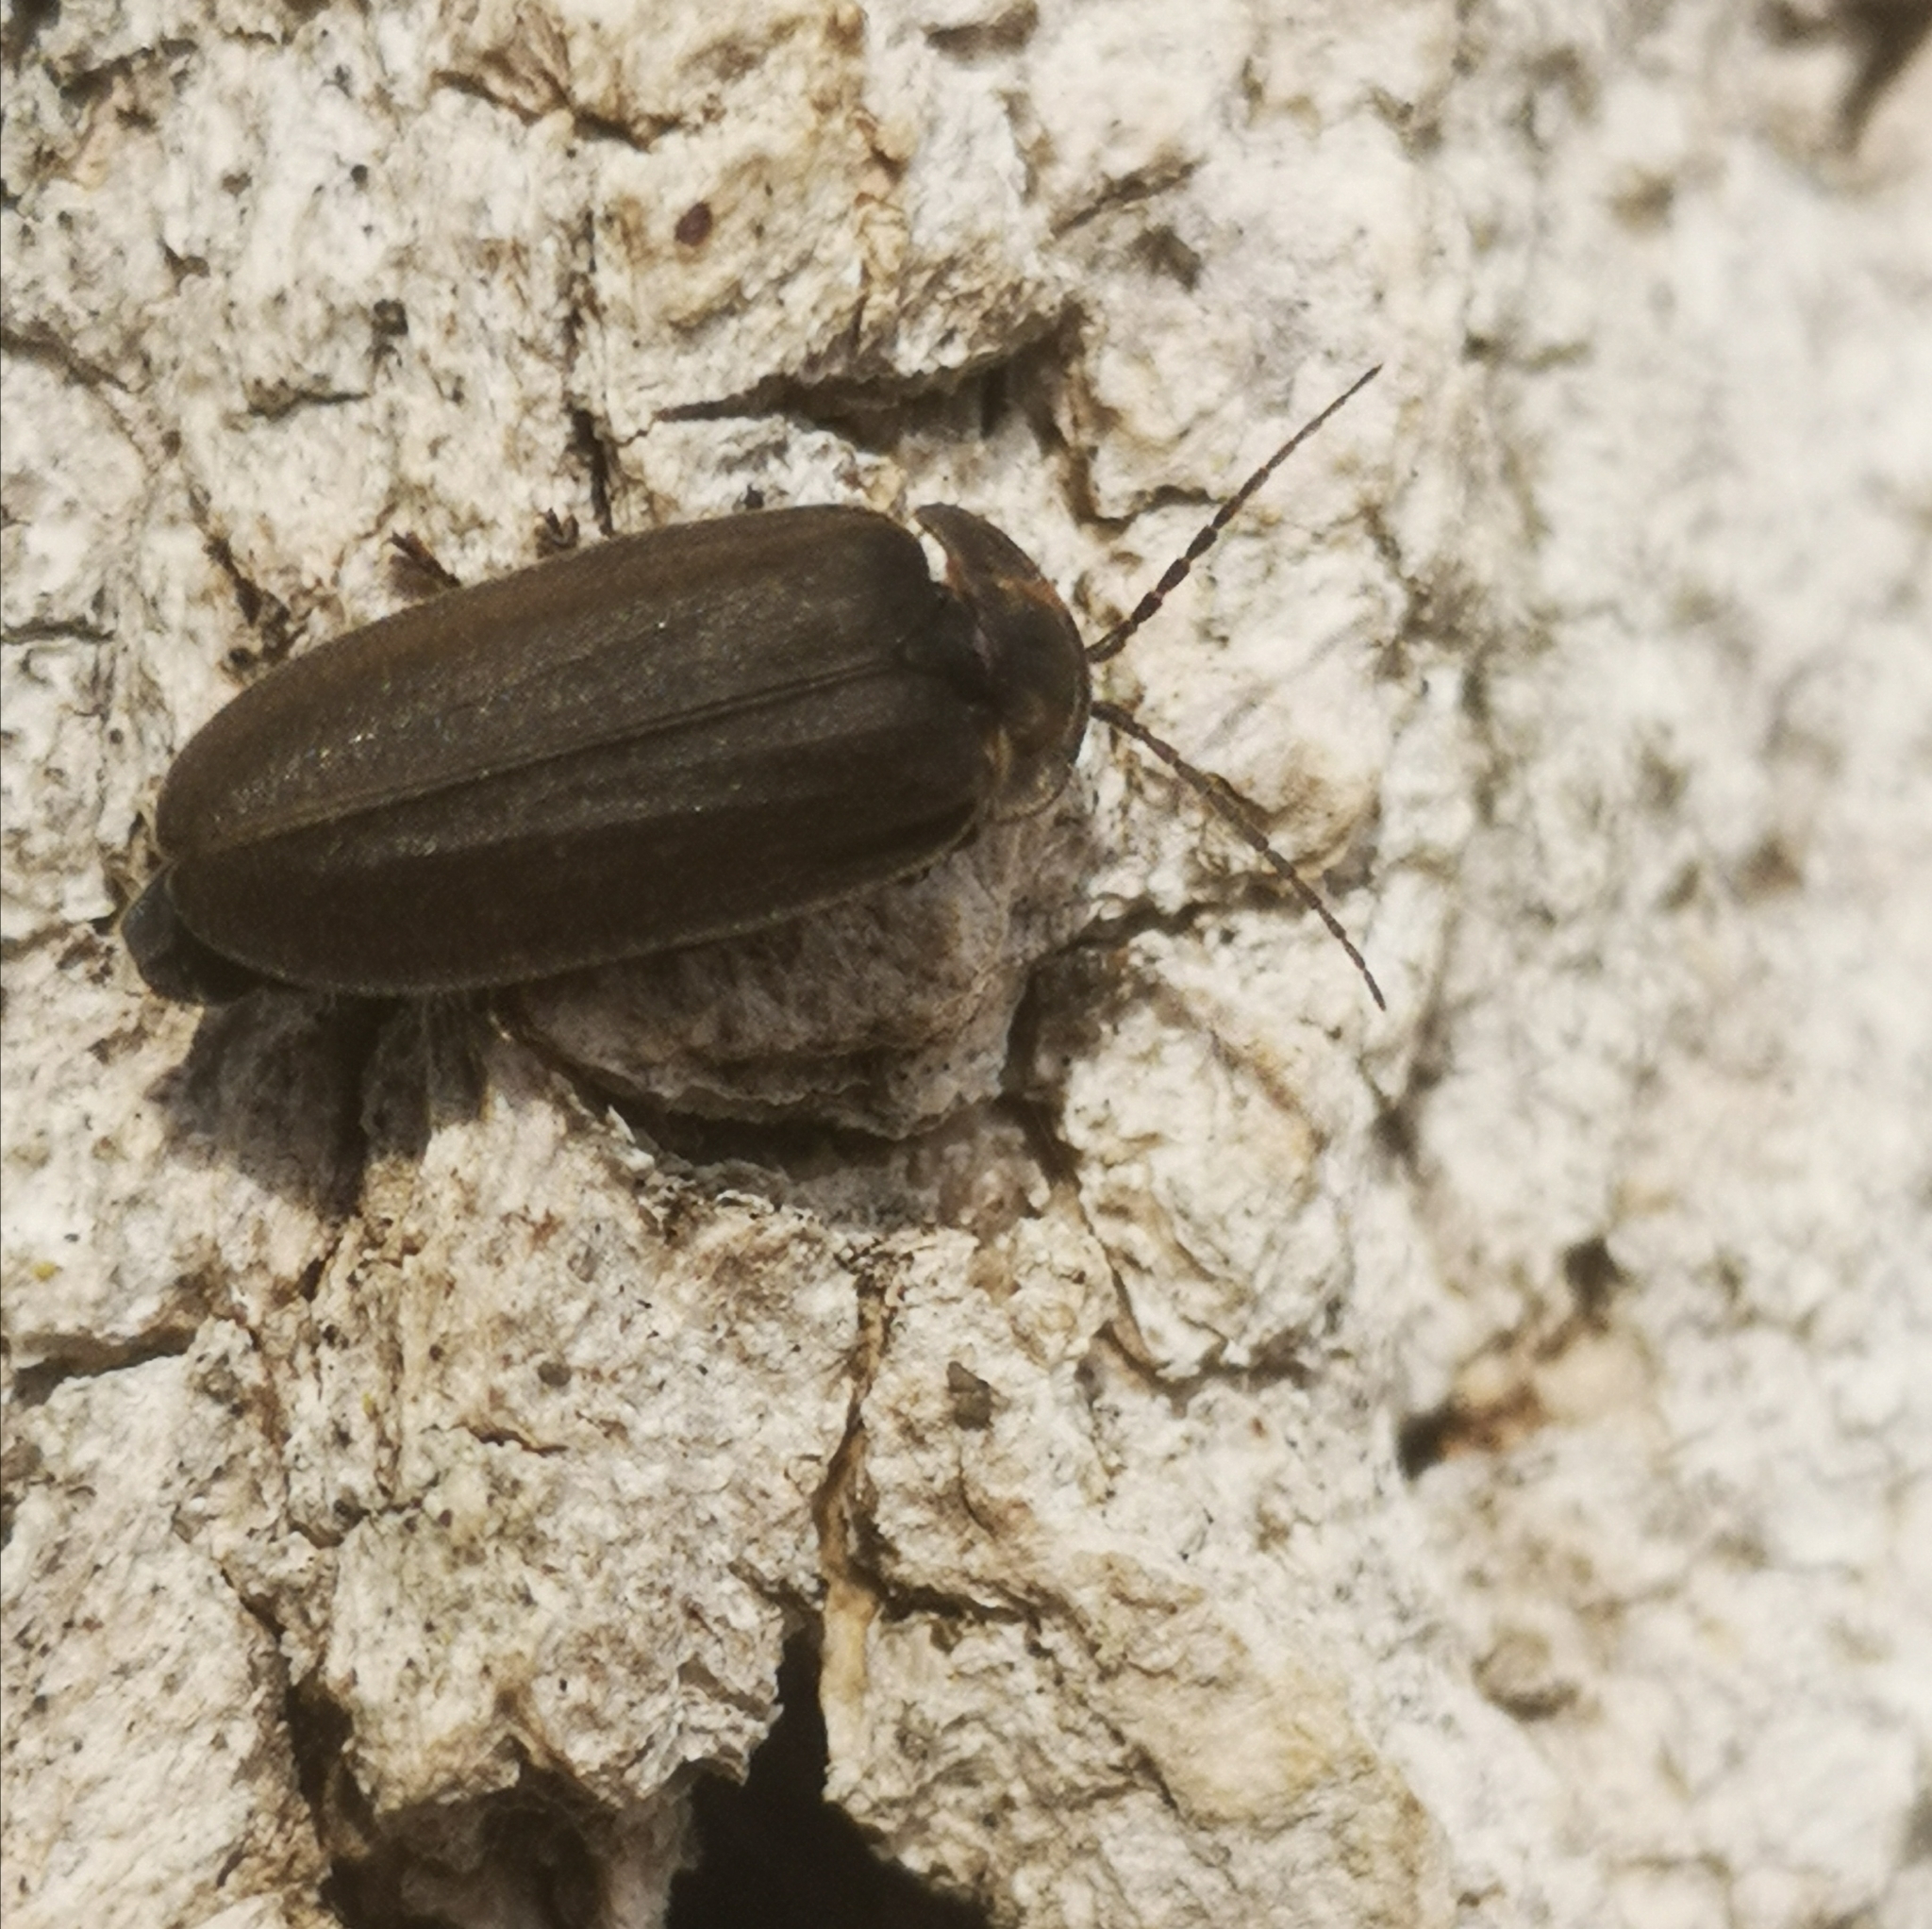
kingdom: Animalia
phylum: Arthropoda
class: Insecta
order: Coleoptera
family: Lampyridae
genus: Photinus
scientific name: Photinus corrusca
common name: Winter firefly
